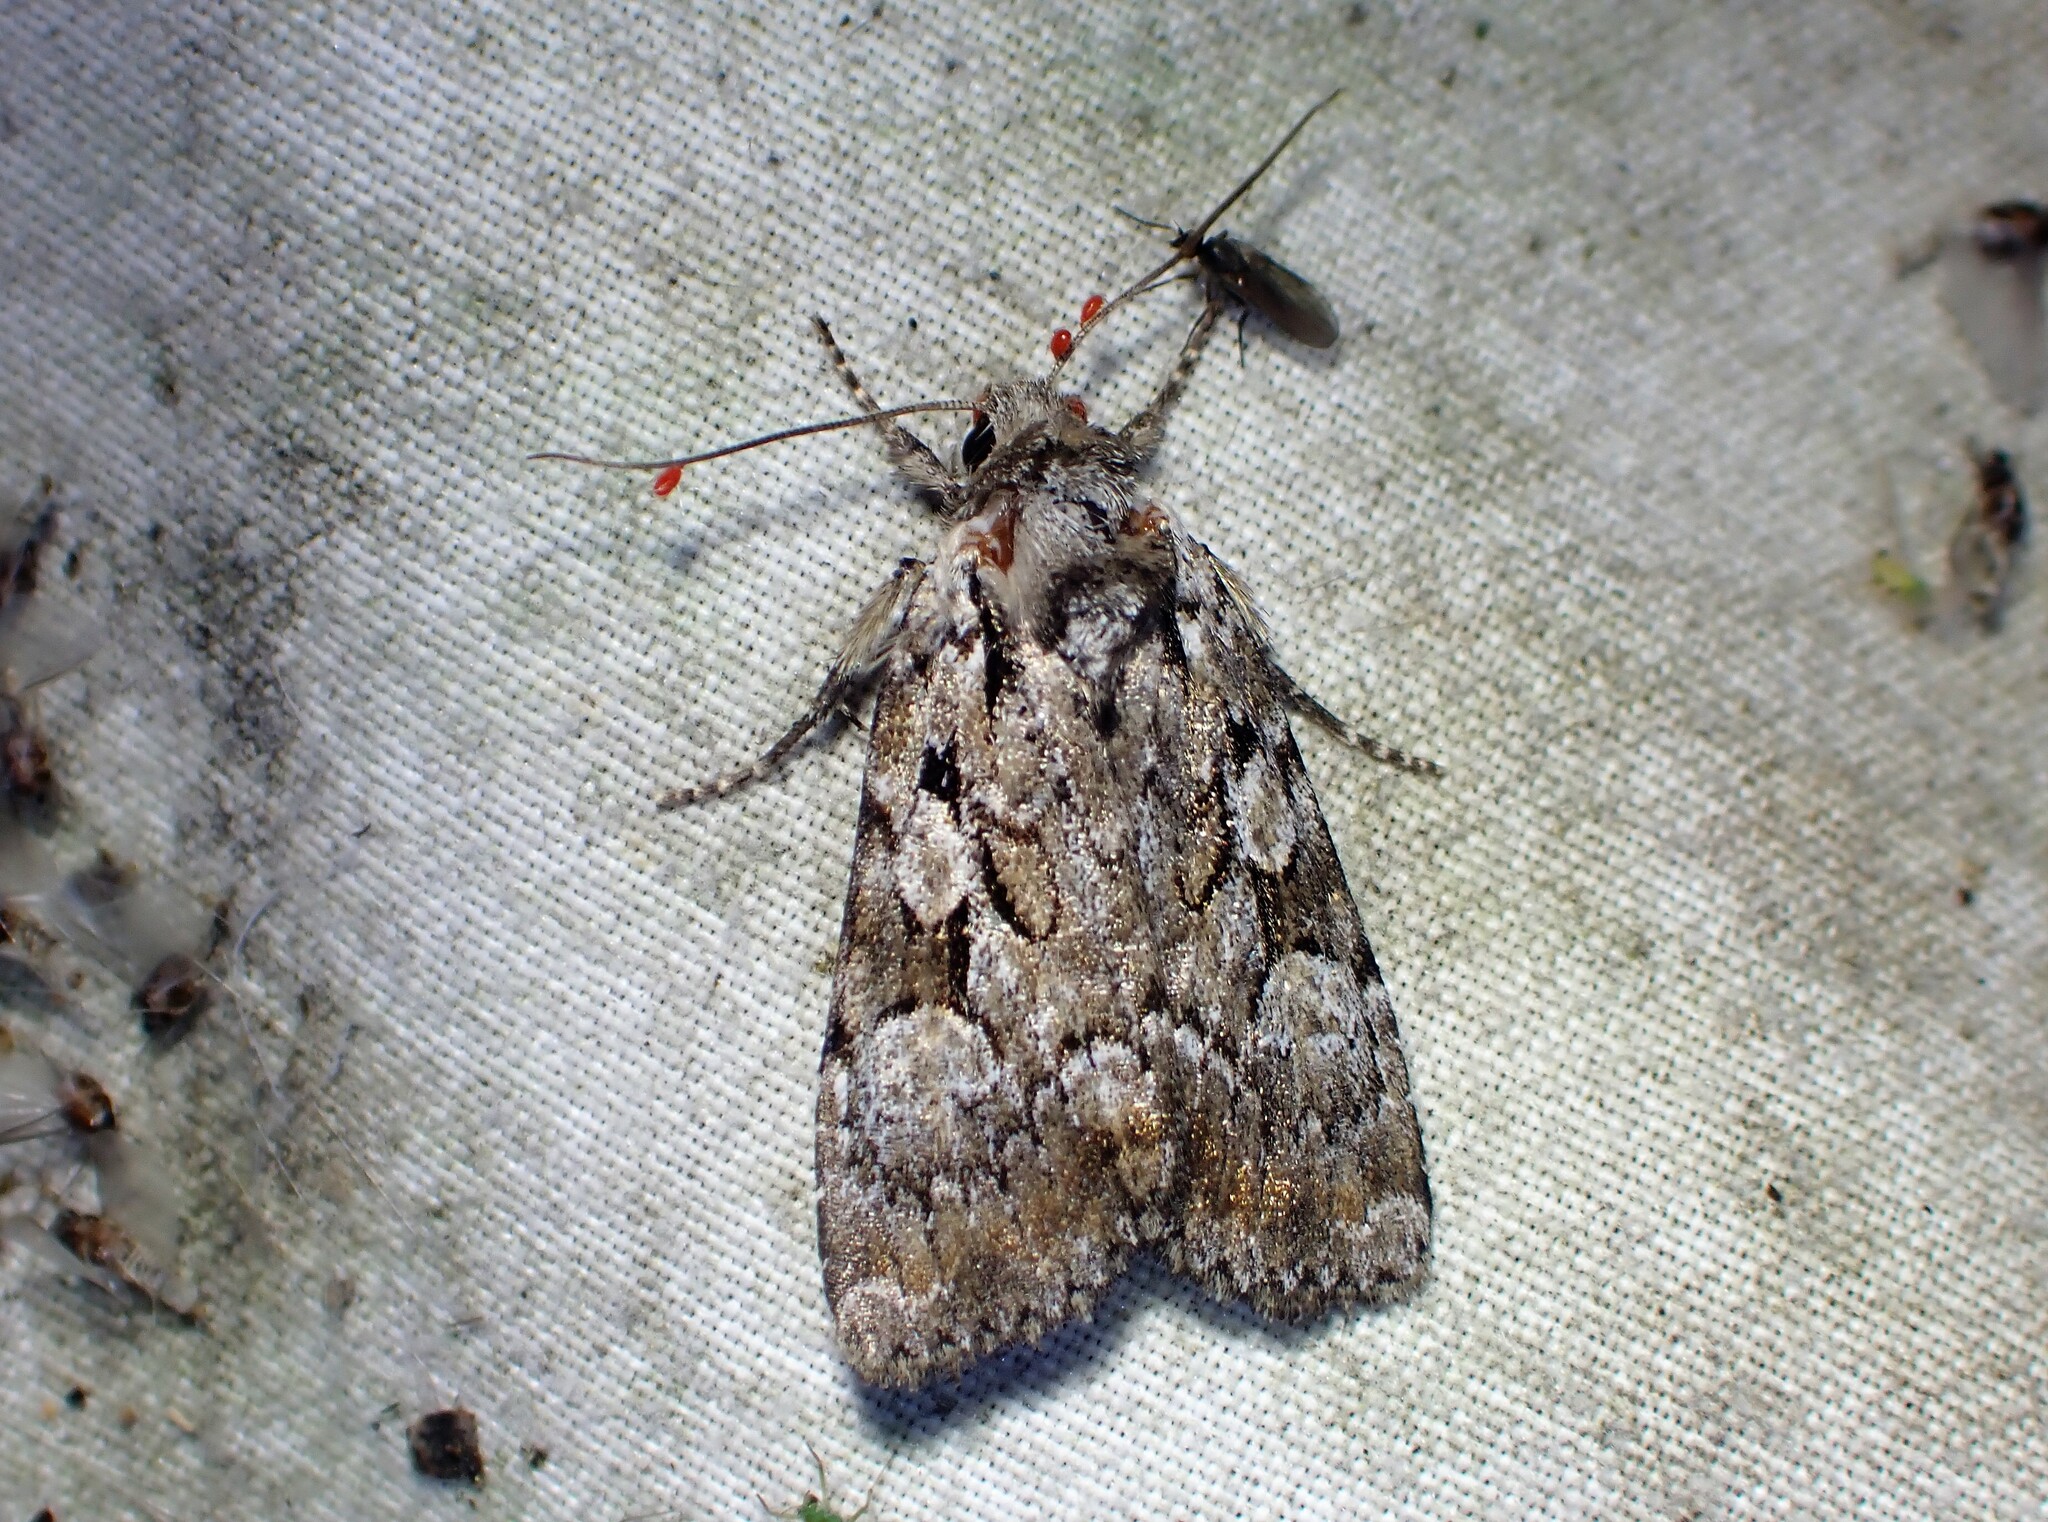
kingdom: Animalia
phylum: Arthropoda
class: Insecta
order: Lepidoptera
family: Noctuidae
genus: Aplectoides
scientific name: Aplectoides condita
